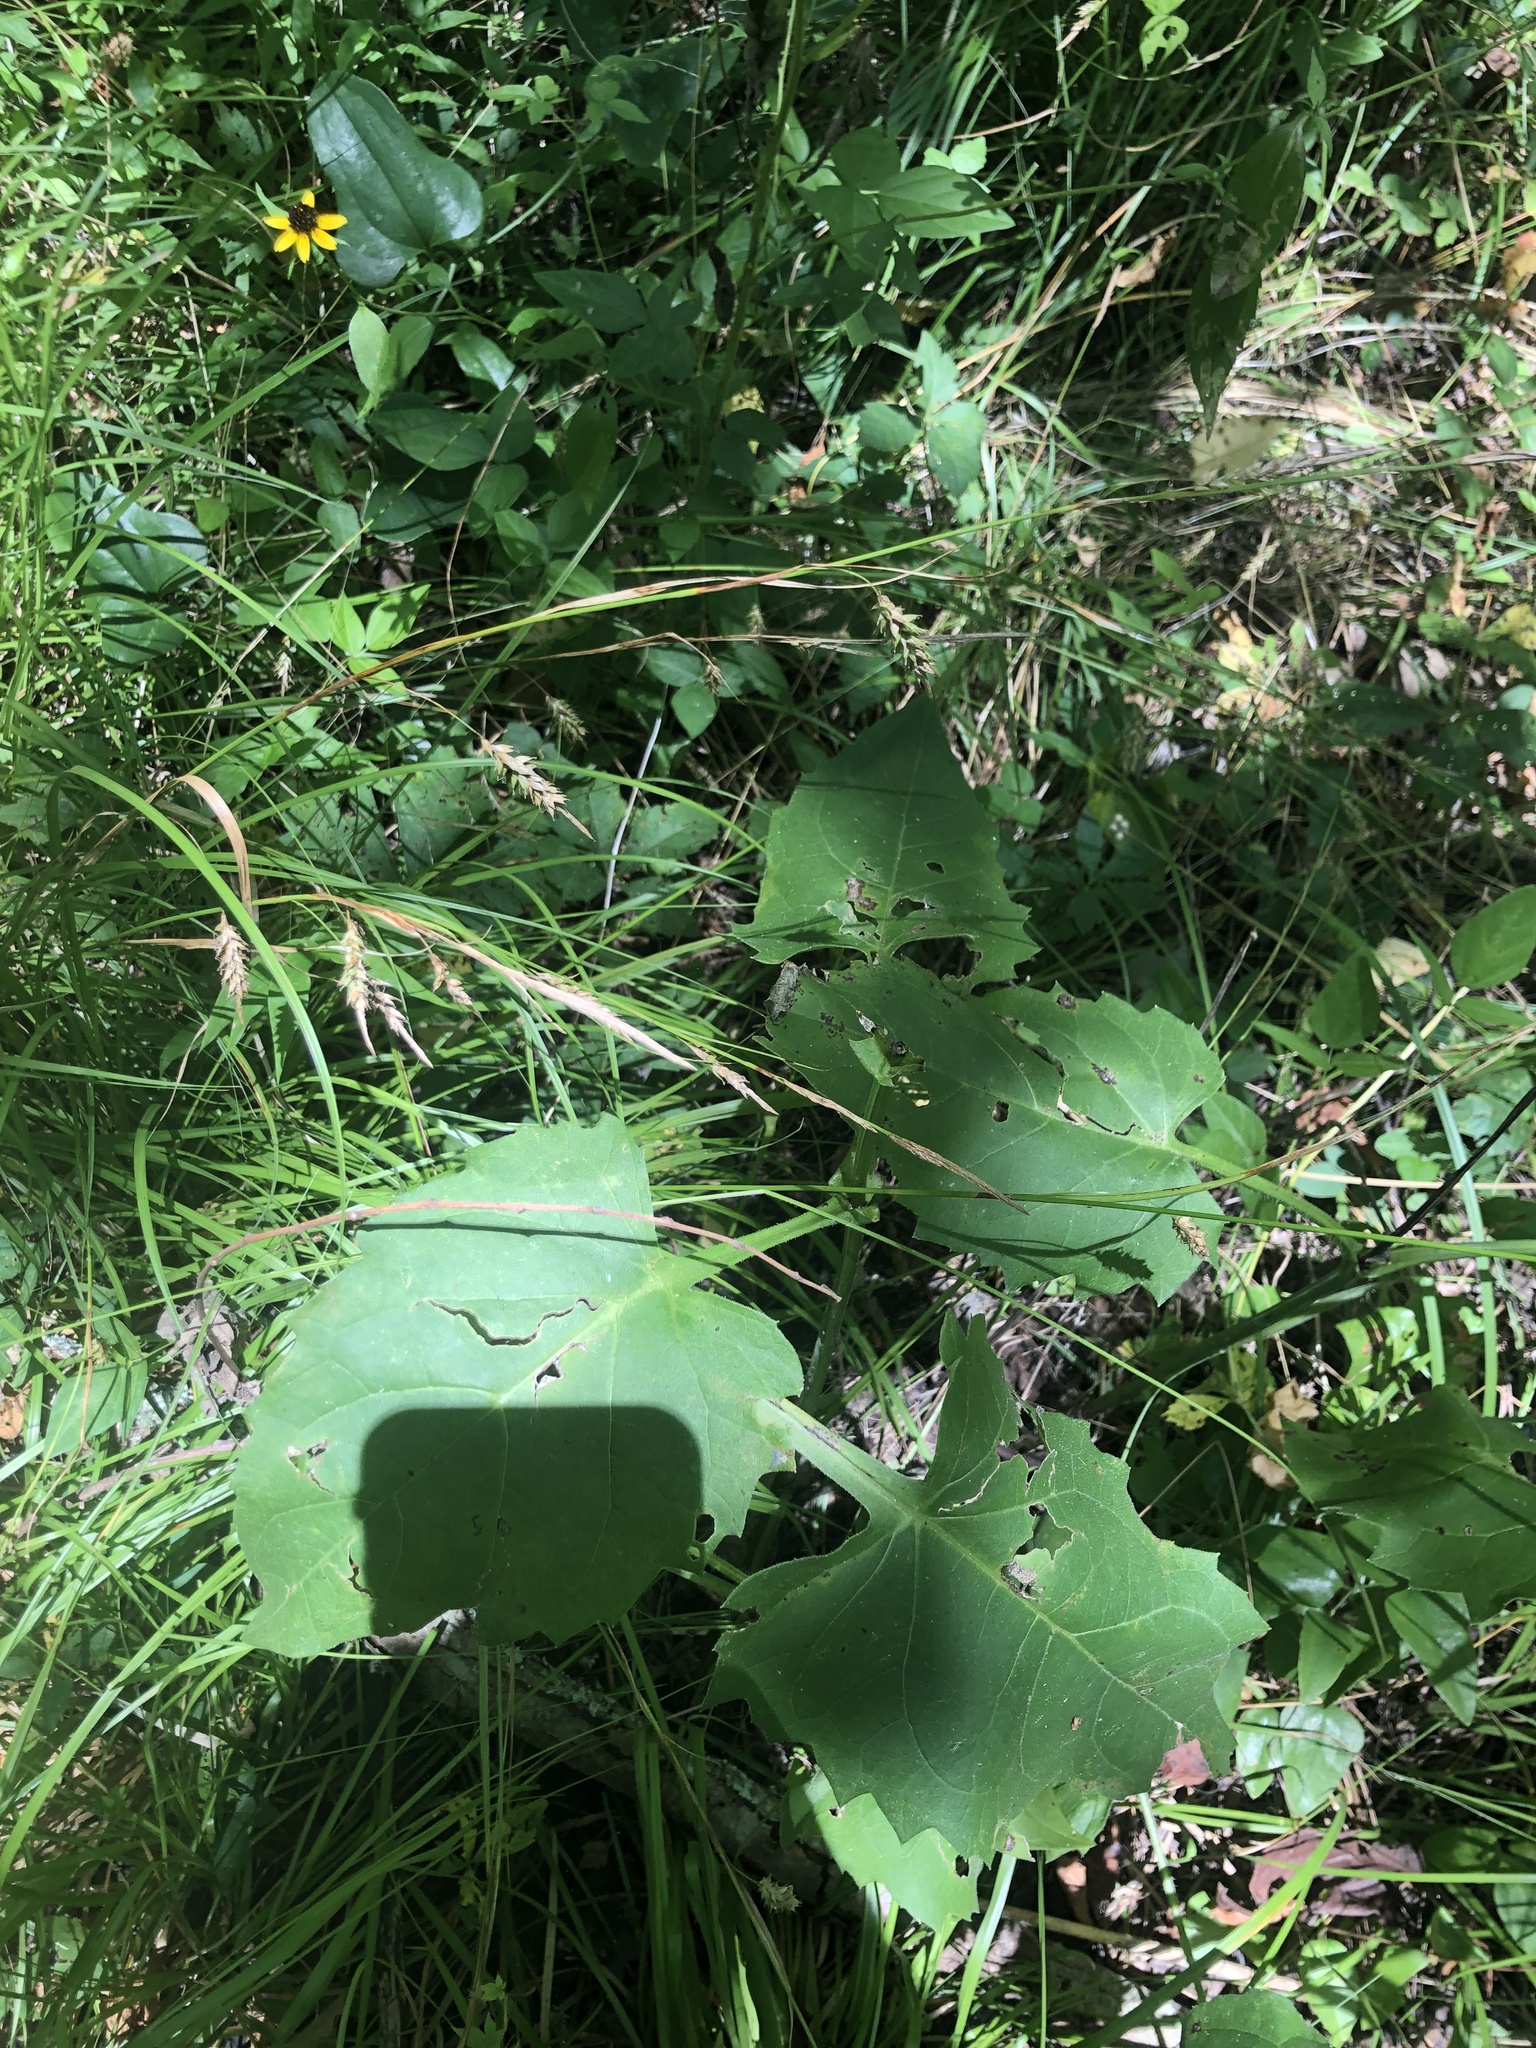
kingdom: Plantae
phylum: Tracheophyta
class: Magnoliopsida
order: Asterales
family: Asteraceae
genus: Silphium
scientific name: Silphium perfoliatum
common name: Cup-plant
